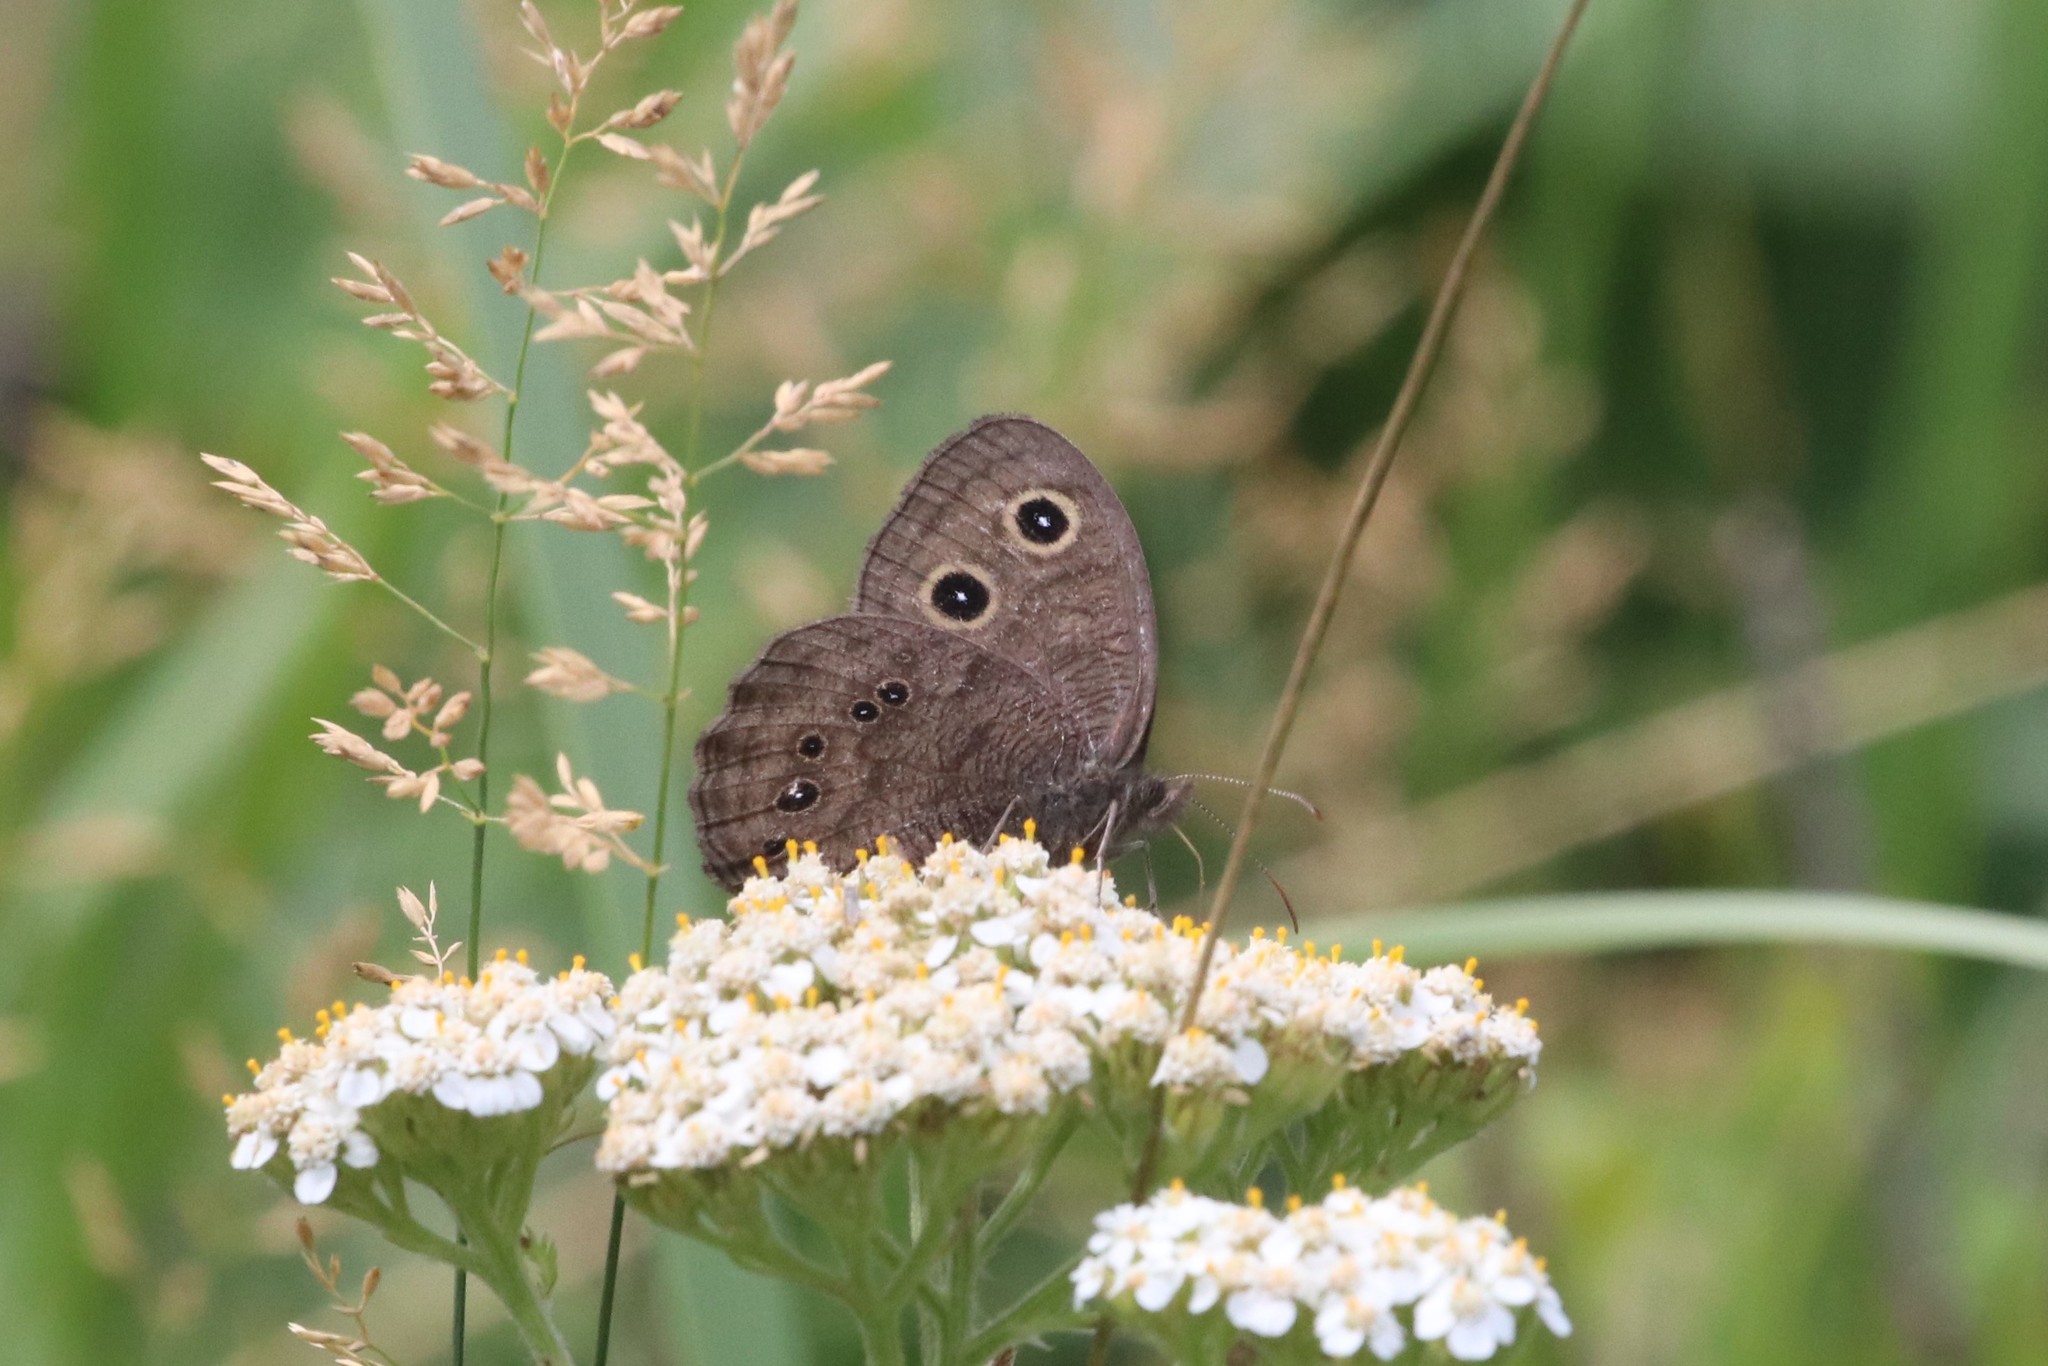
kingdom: Animalia
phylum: Arthropoda
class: Insecta
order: Lepidoptera
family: Nymphalidae
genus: Cercyonis
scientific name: Cercyonis pegala
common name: Common wood-nymph
